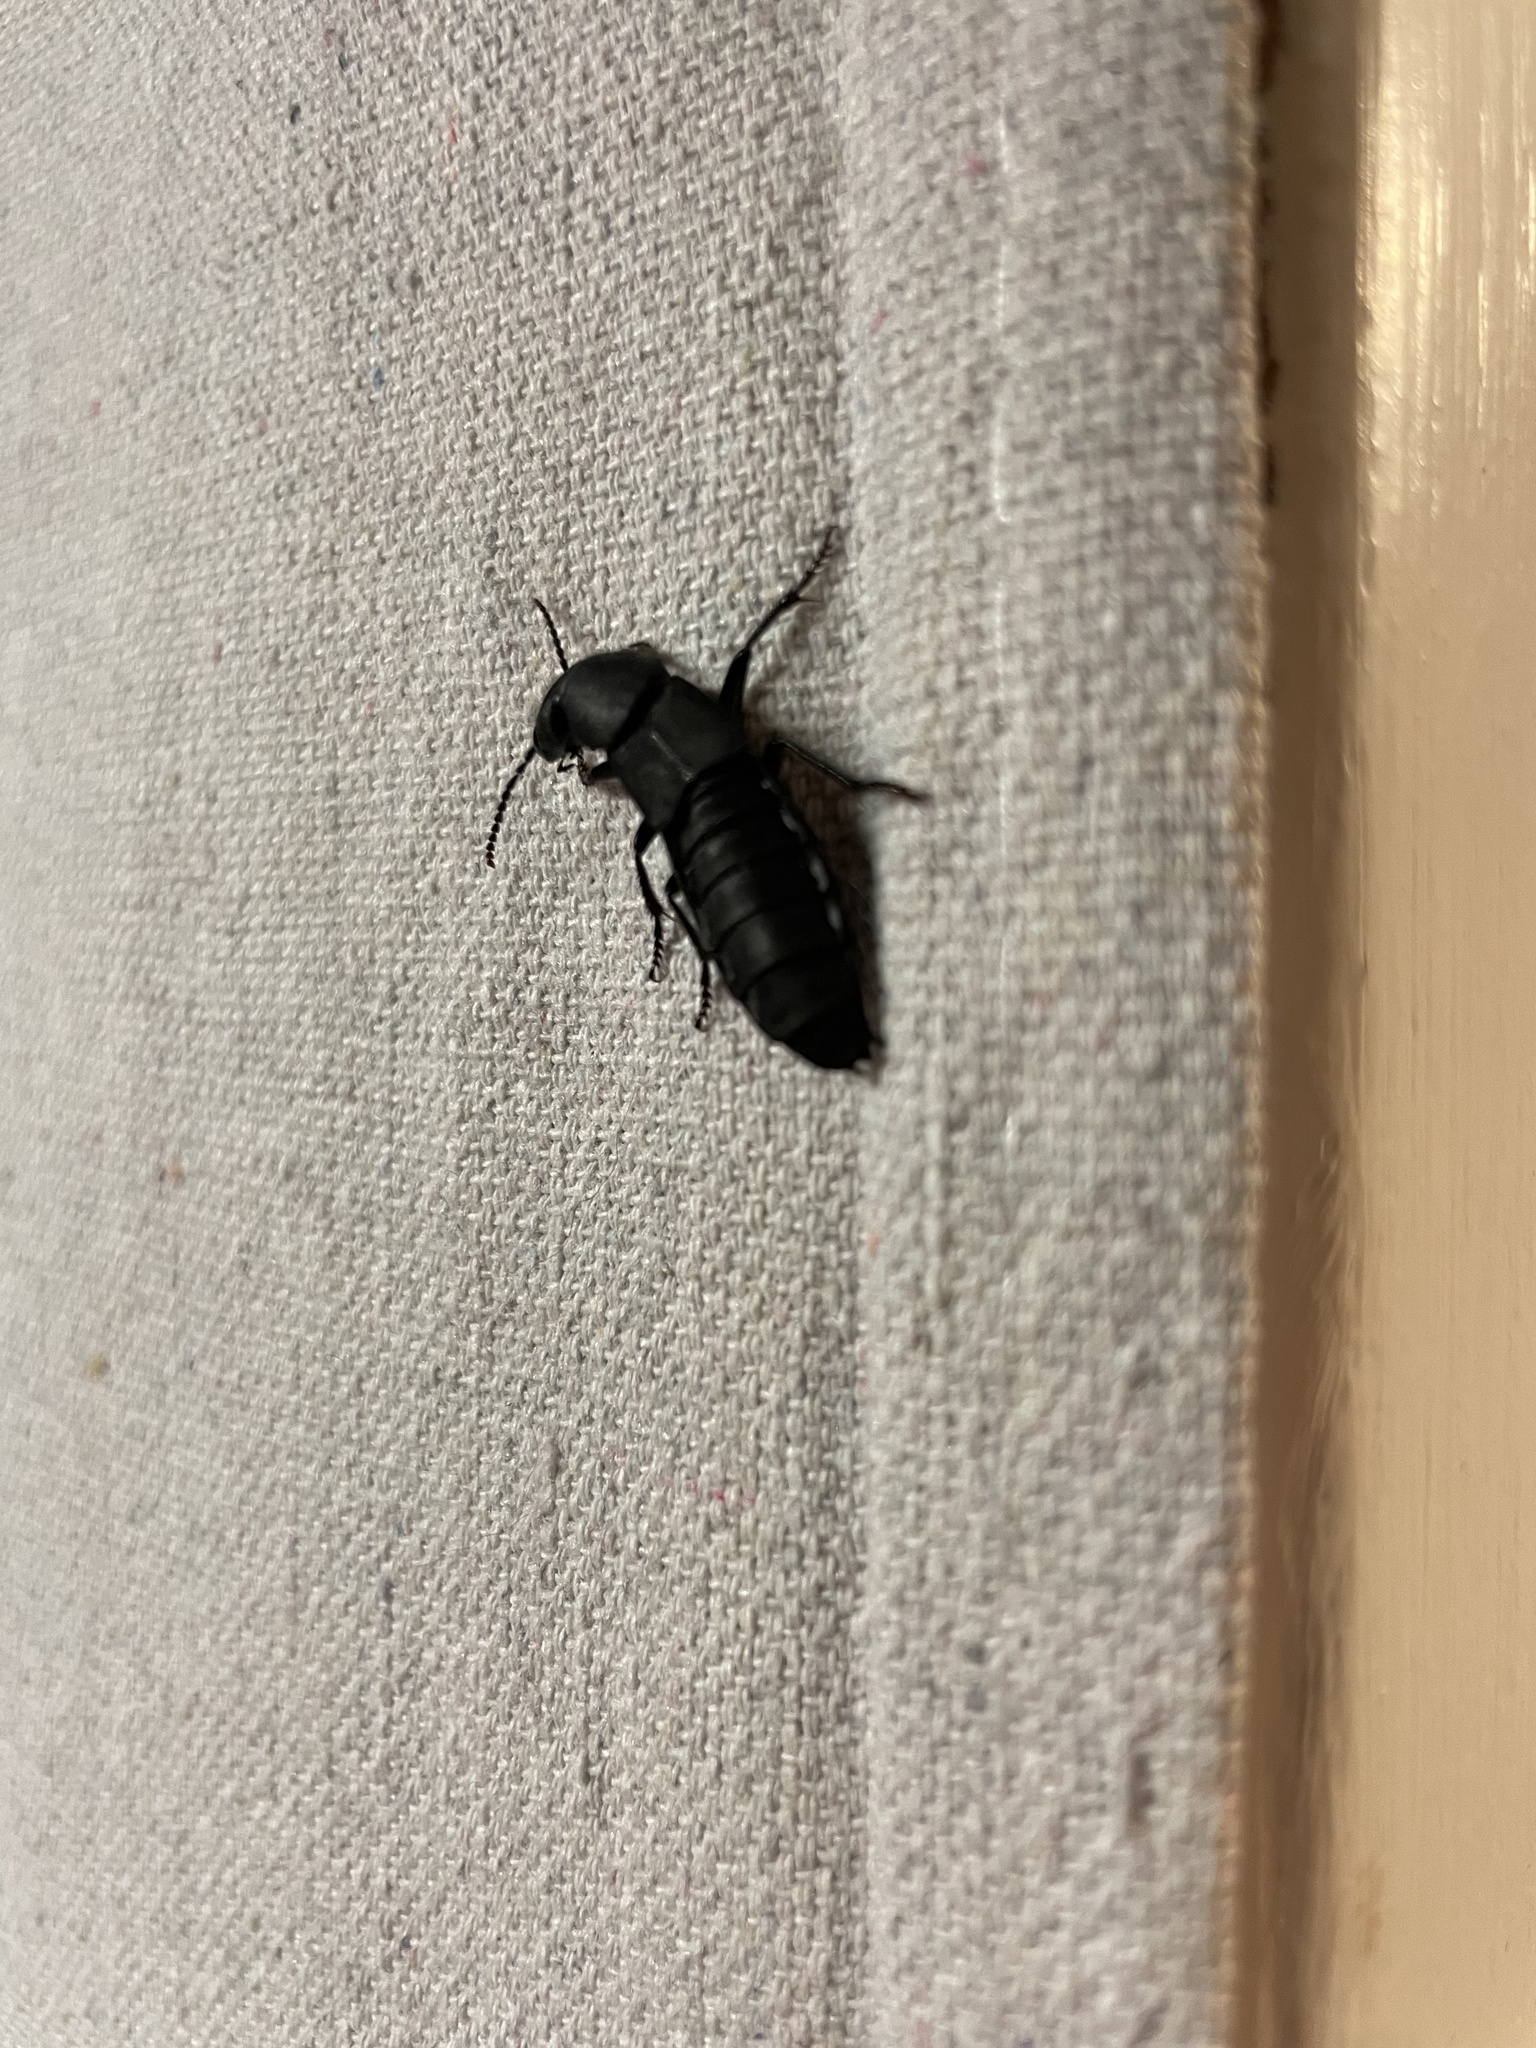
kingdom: Animalia
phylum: Arthropoda
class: Insecta
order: Coleoptera
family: Staphylinidae
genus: Ocypus
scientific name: Ocypus olens
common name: Devil's coach-horse
